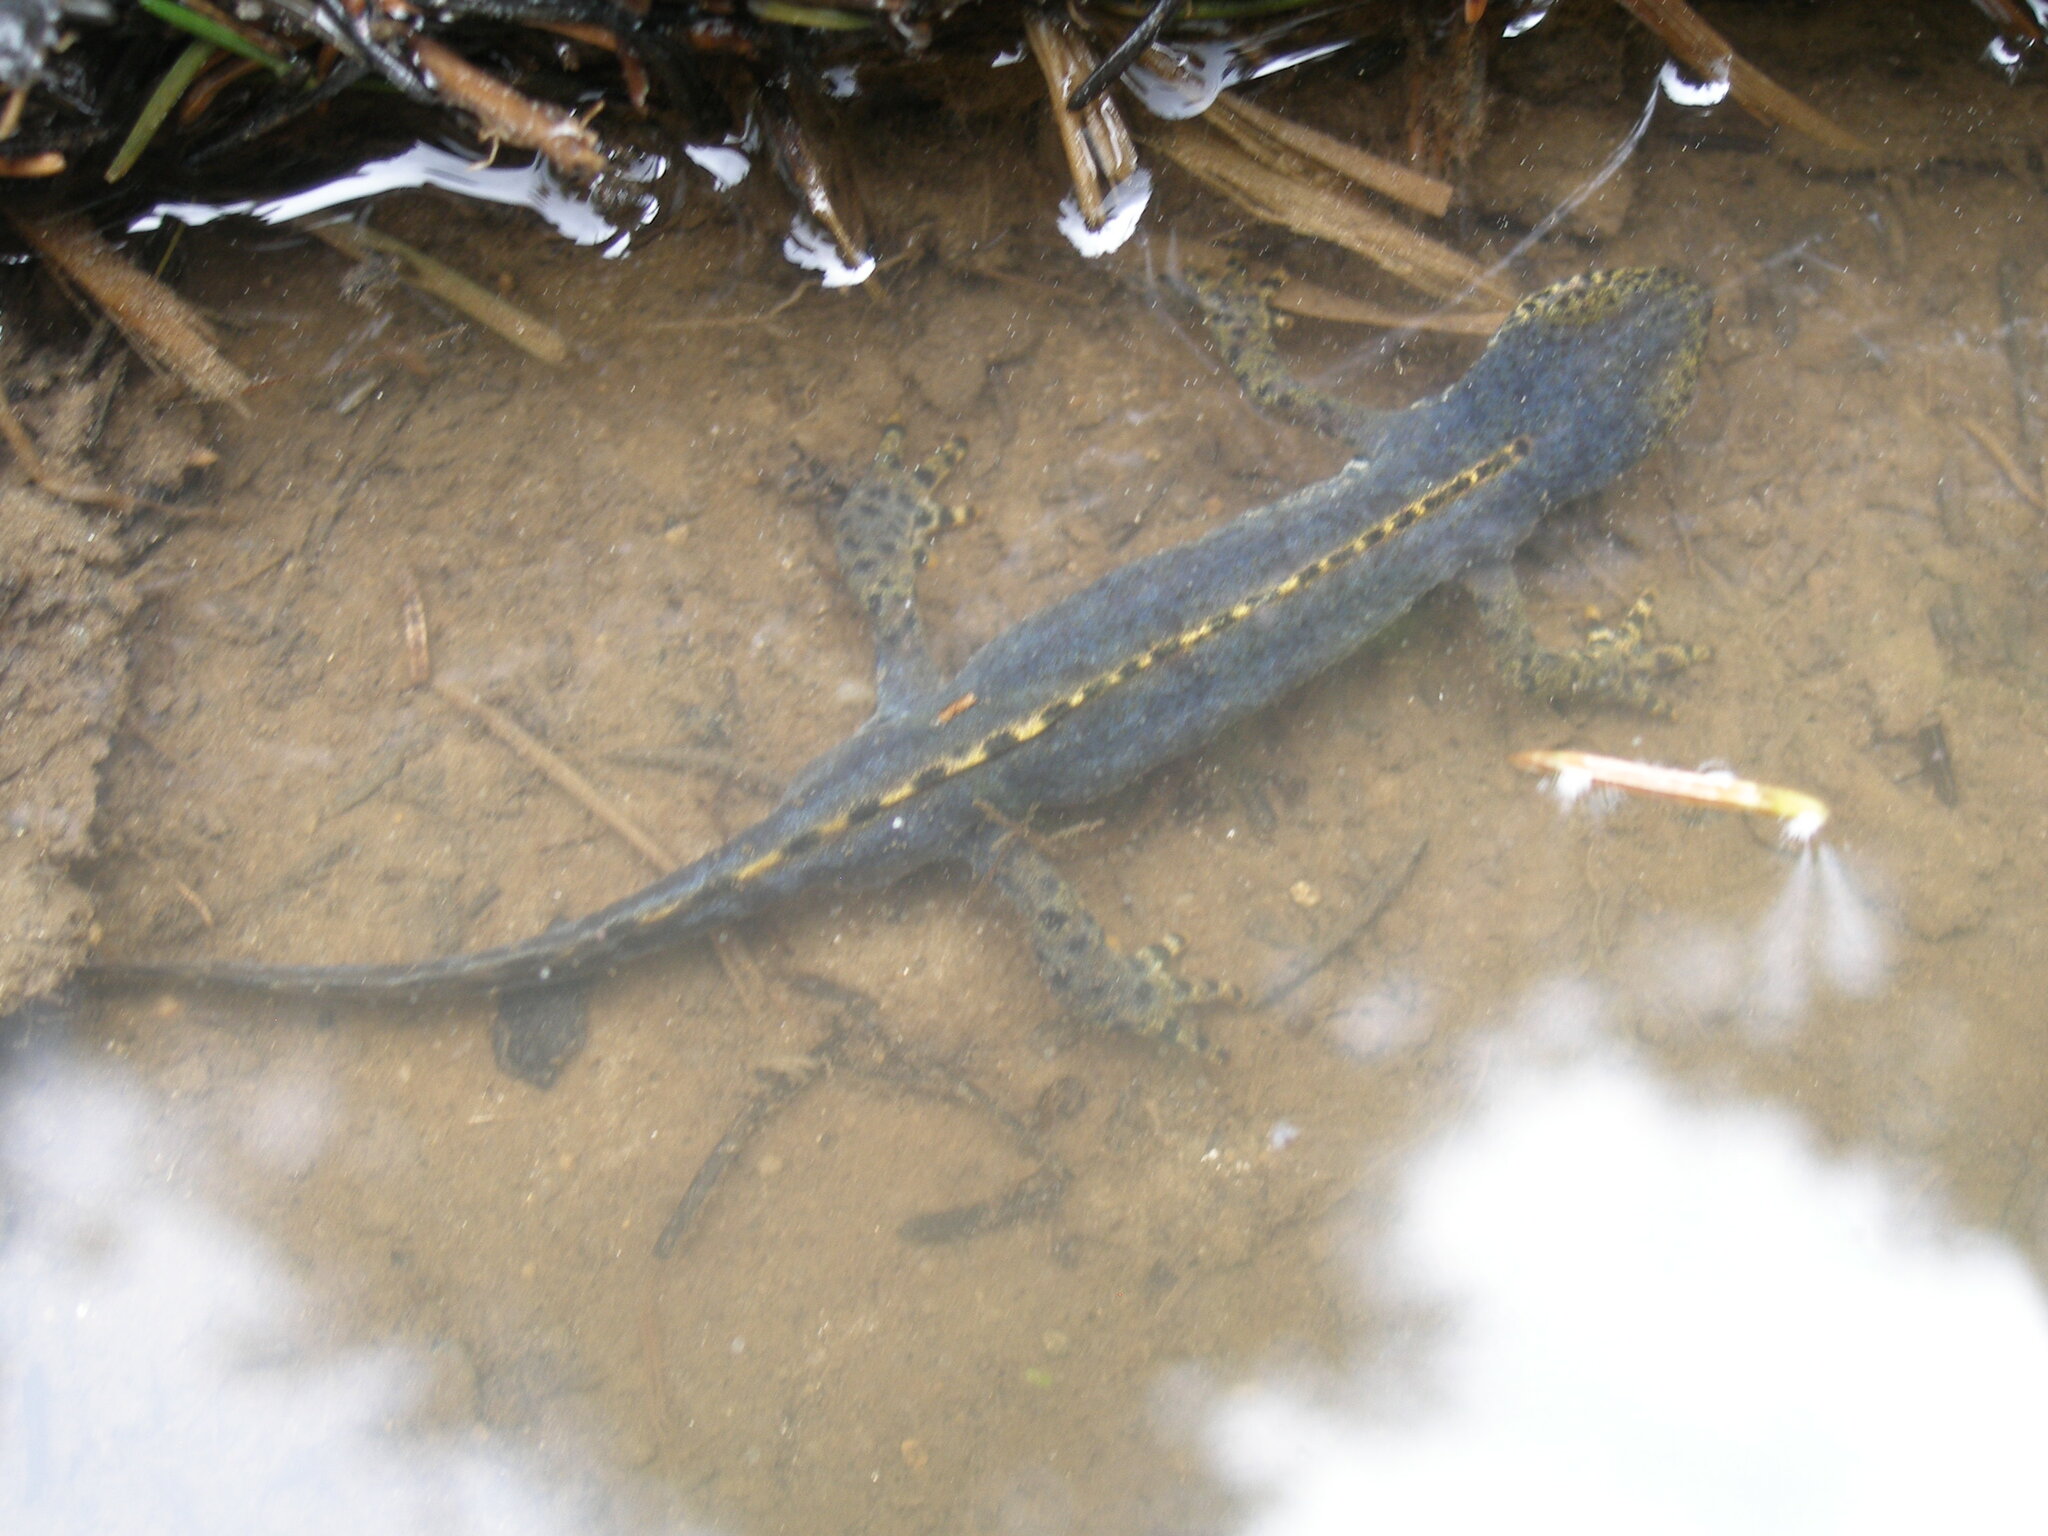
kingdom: Animalia
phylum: Chordata
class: Amphibia
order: Caudata
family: Salamandridae
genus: Ichthyosaura
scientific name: Ichthyosaura alpestris
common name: Alpine newt
